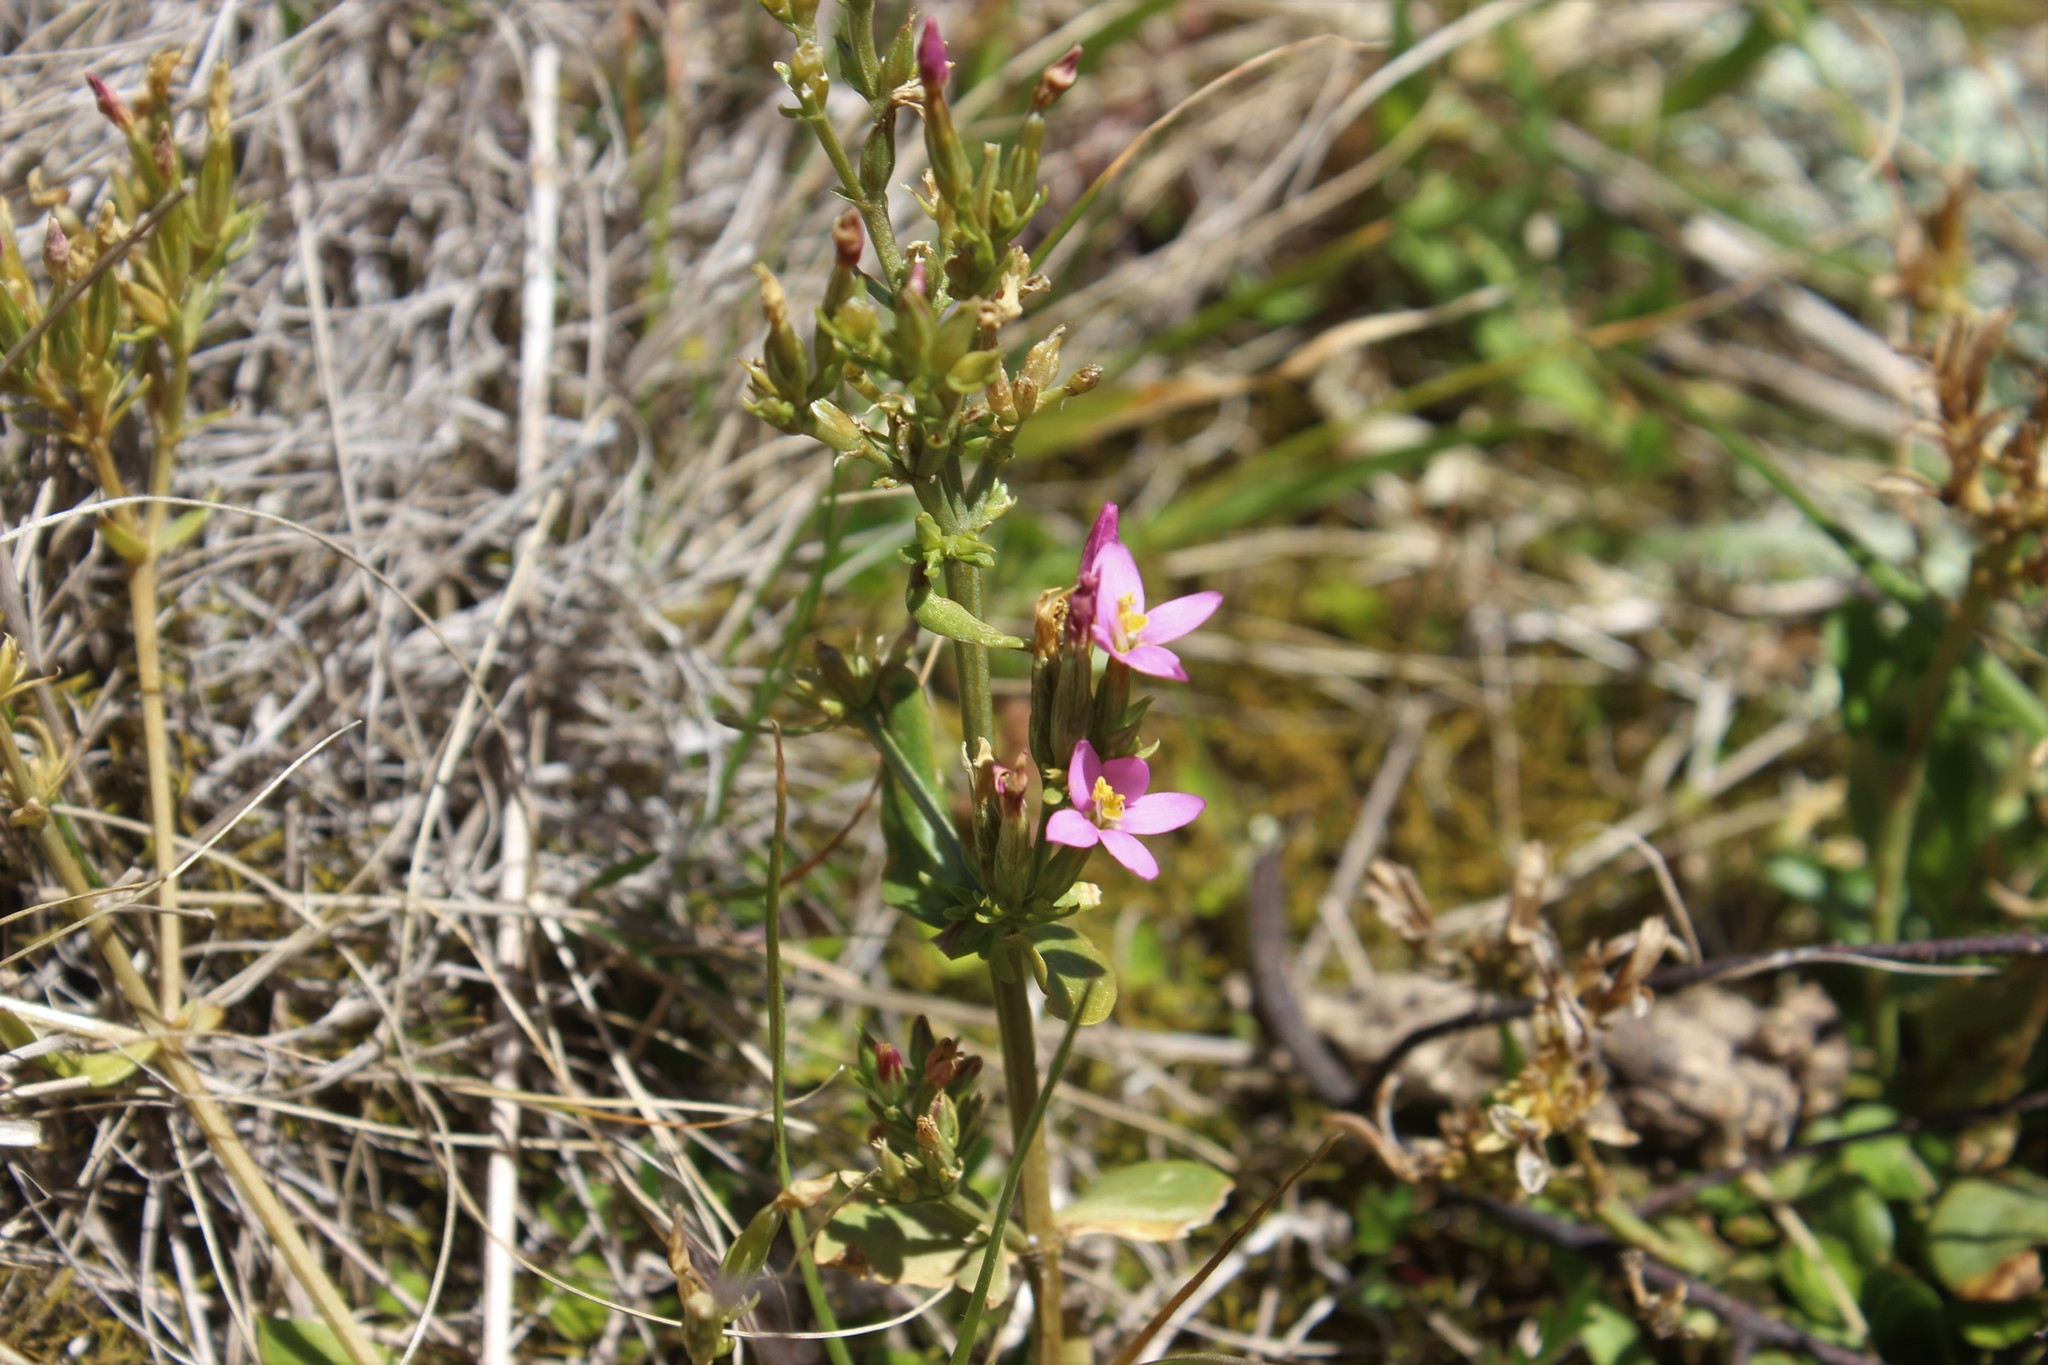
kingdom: Plantae
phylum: Tracheophyta
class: Magnoliopsida
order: Gentianales
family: Gentianaceae
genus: Centaurium
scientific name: Centaurium erythraea
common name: Common centaury
